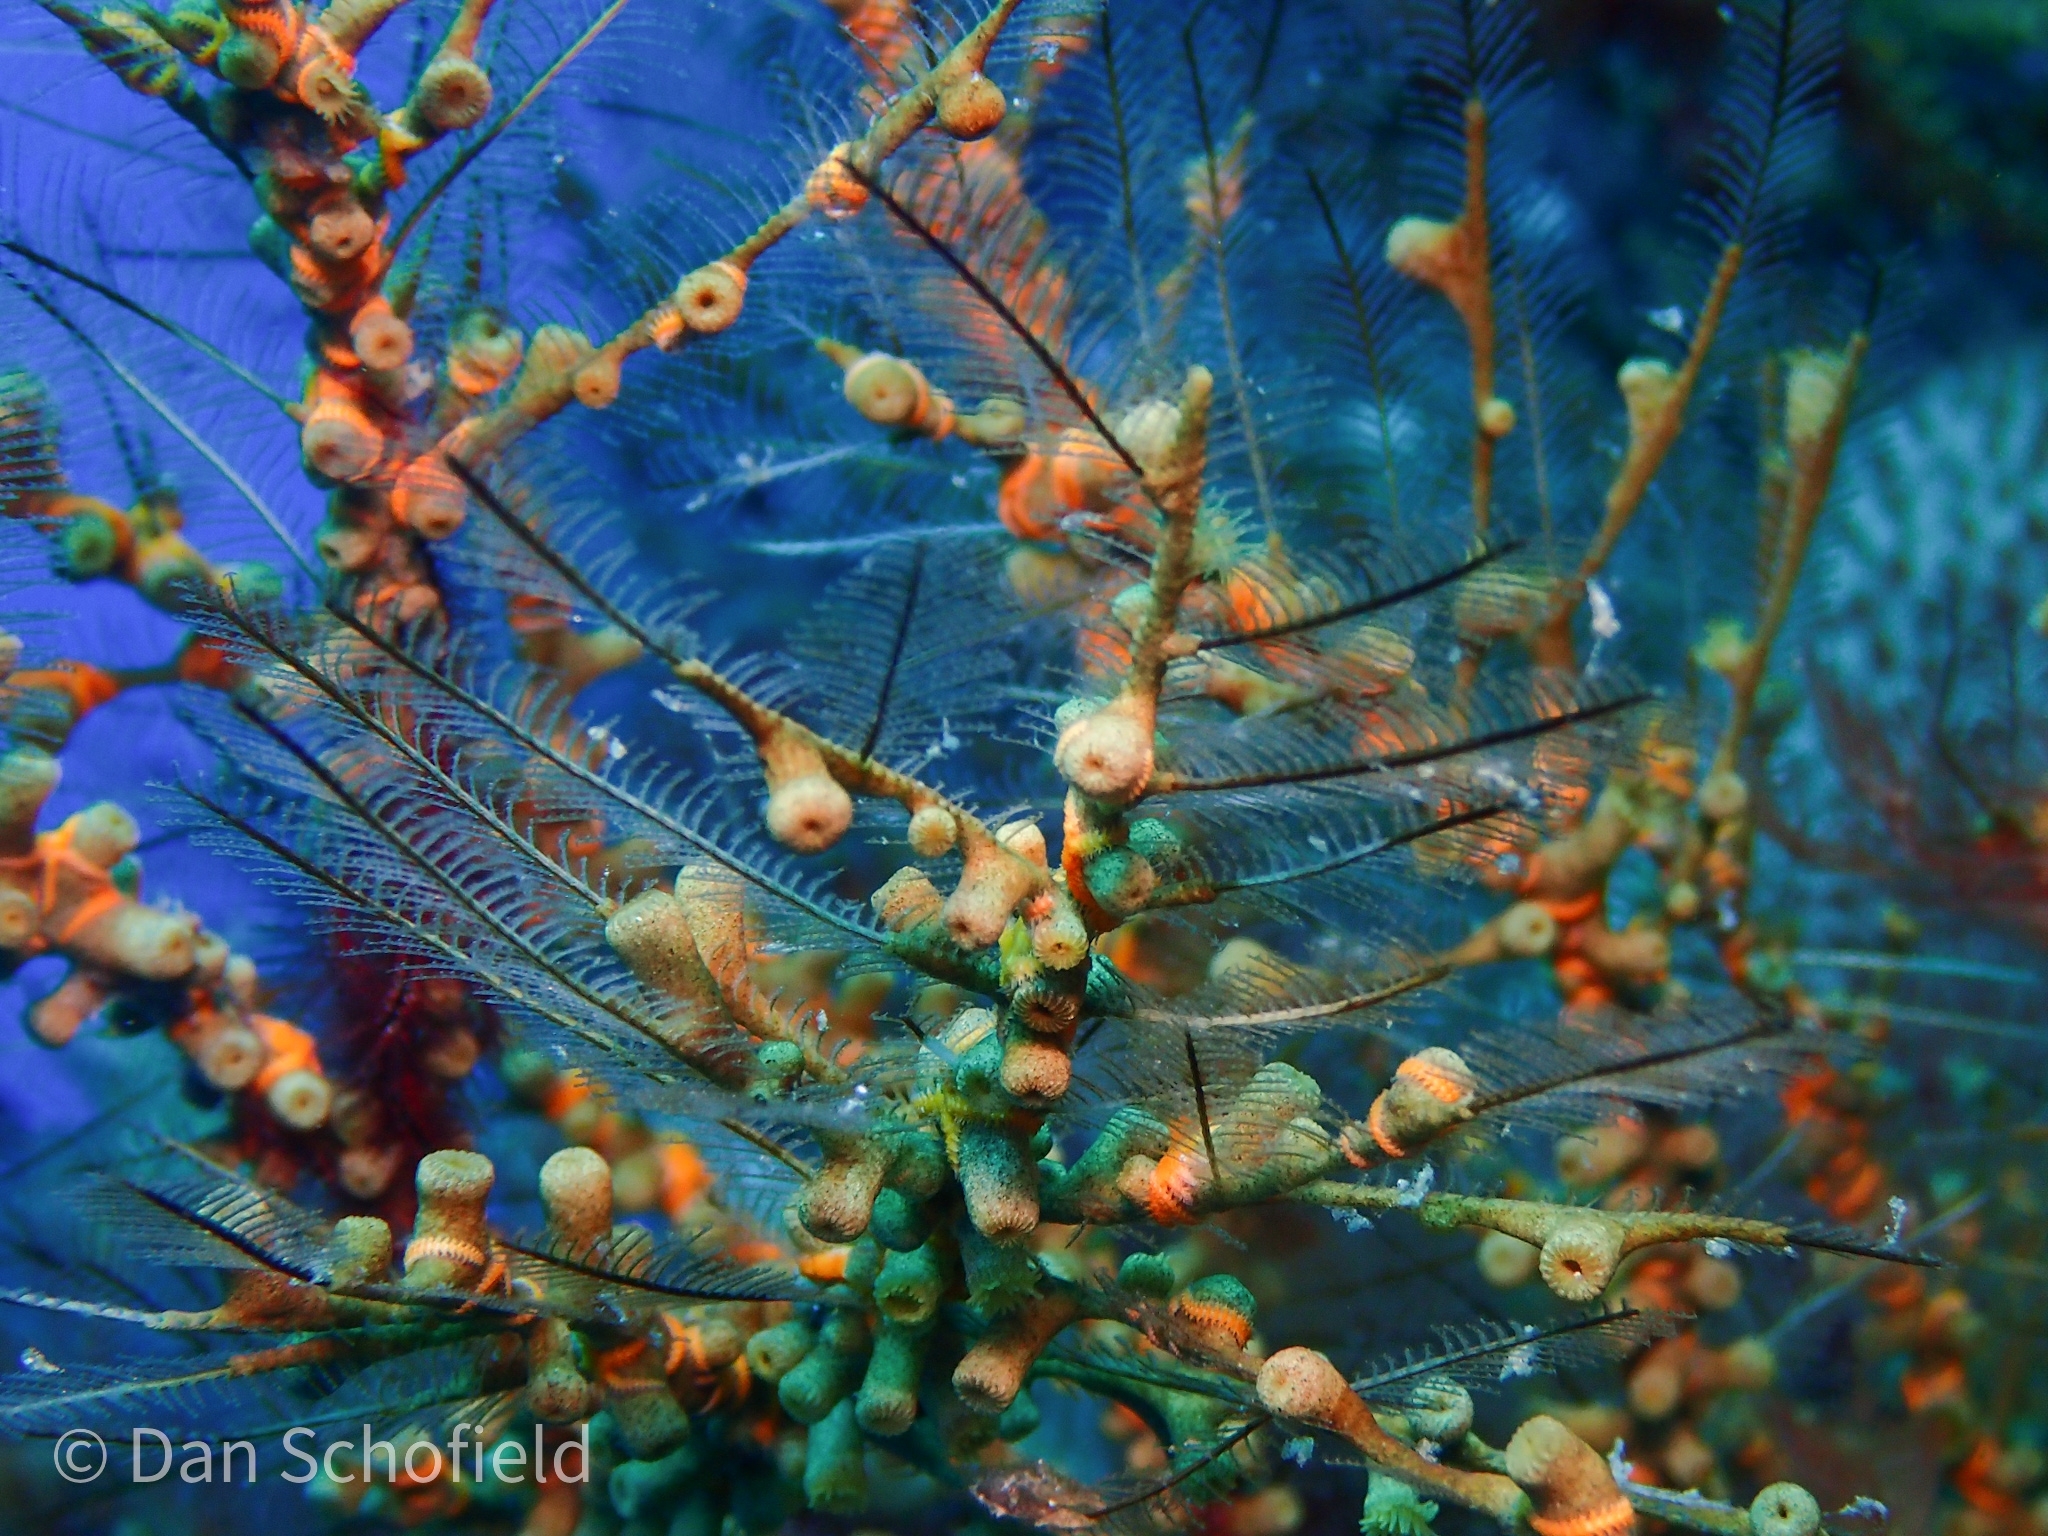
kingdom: Animalia
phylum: Cnidaria
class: Anthozoa
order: Zoantharia
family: Hydrozoanthidae
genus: Hydrozoanthus
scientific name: Hydrozoanthus antumbrosus
